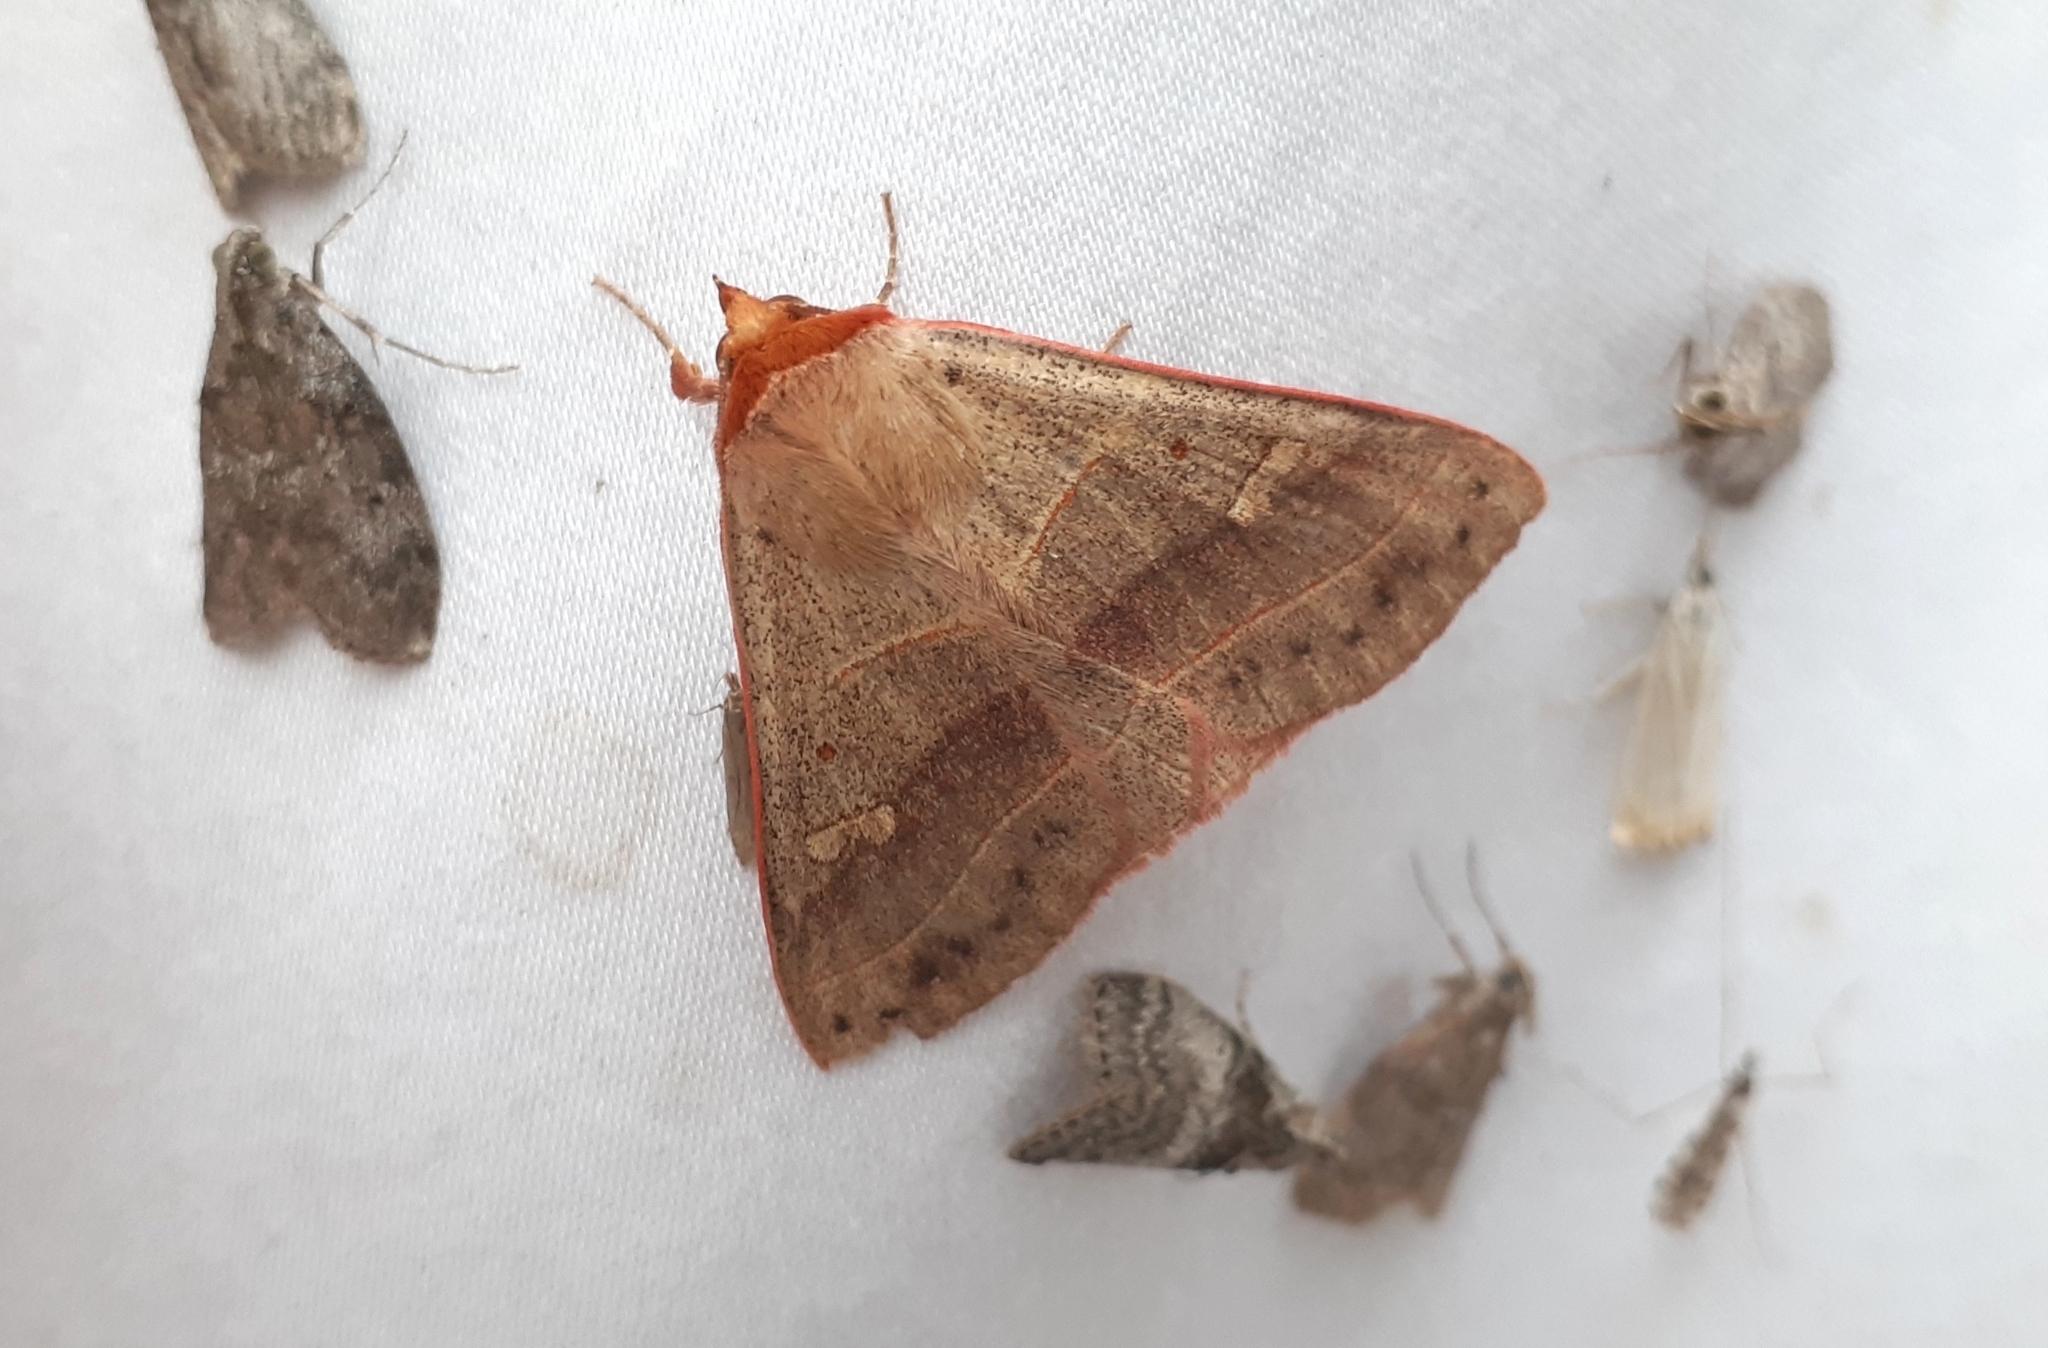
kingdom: Animalia
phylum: Arthropoda
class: Insecta
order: Lepidoptera
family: Erebidae
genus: Panopoda
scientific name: Panopoda rufimargo
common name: Red-lined panopoda moth
